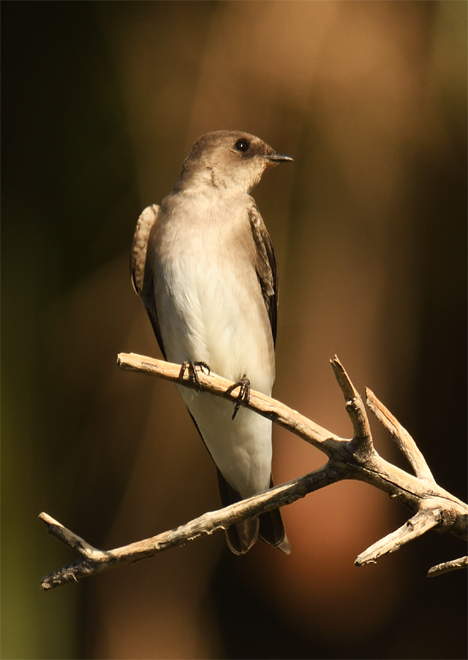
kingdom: Animalia
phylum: Chordata
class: Aves
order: Passeriformes
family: Hirundinidae
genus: Stelgidopteryx
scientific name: Stelgidopteryx serripennis
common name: Northern rough-winged swallow
